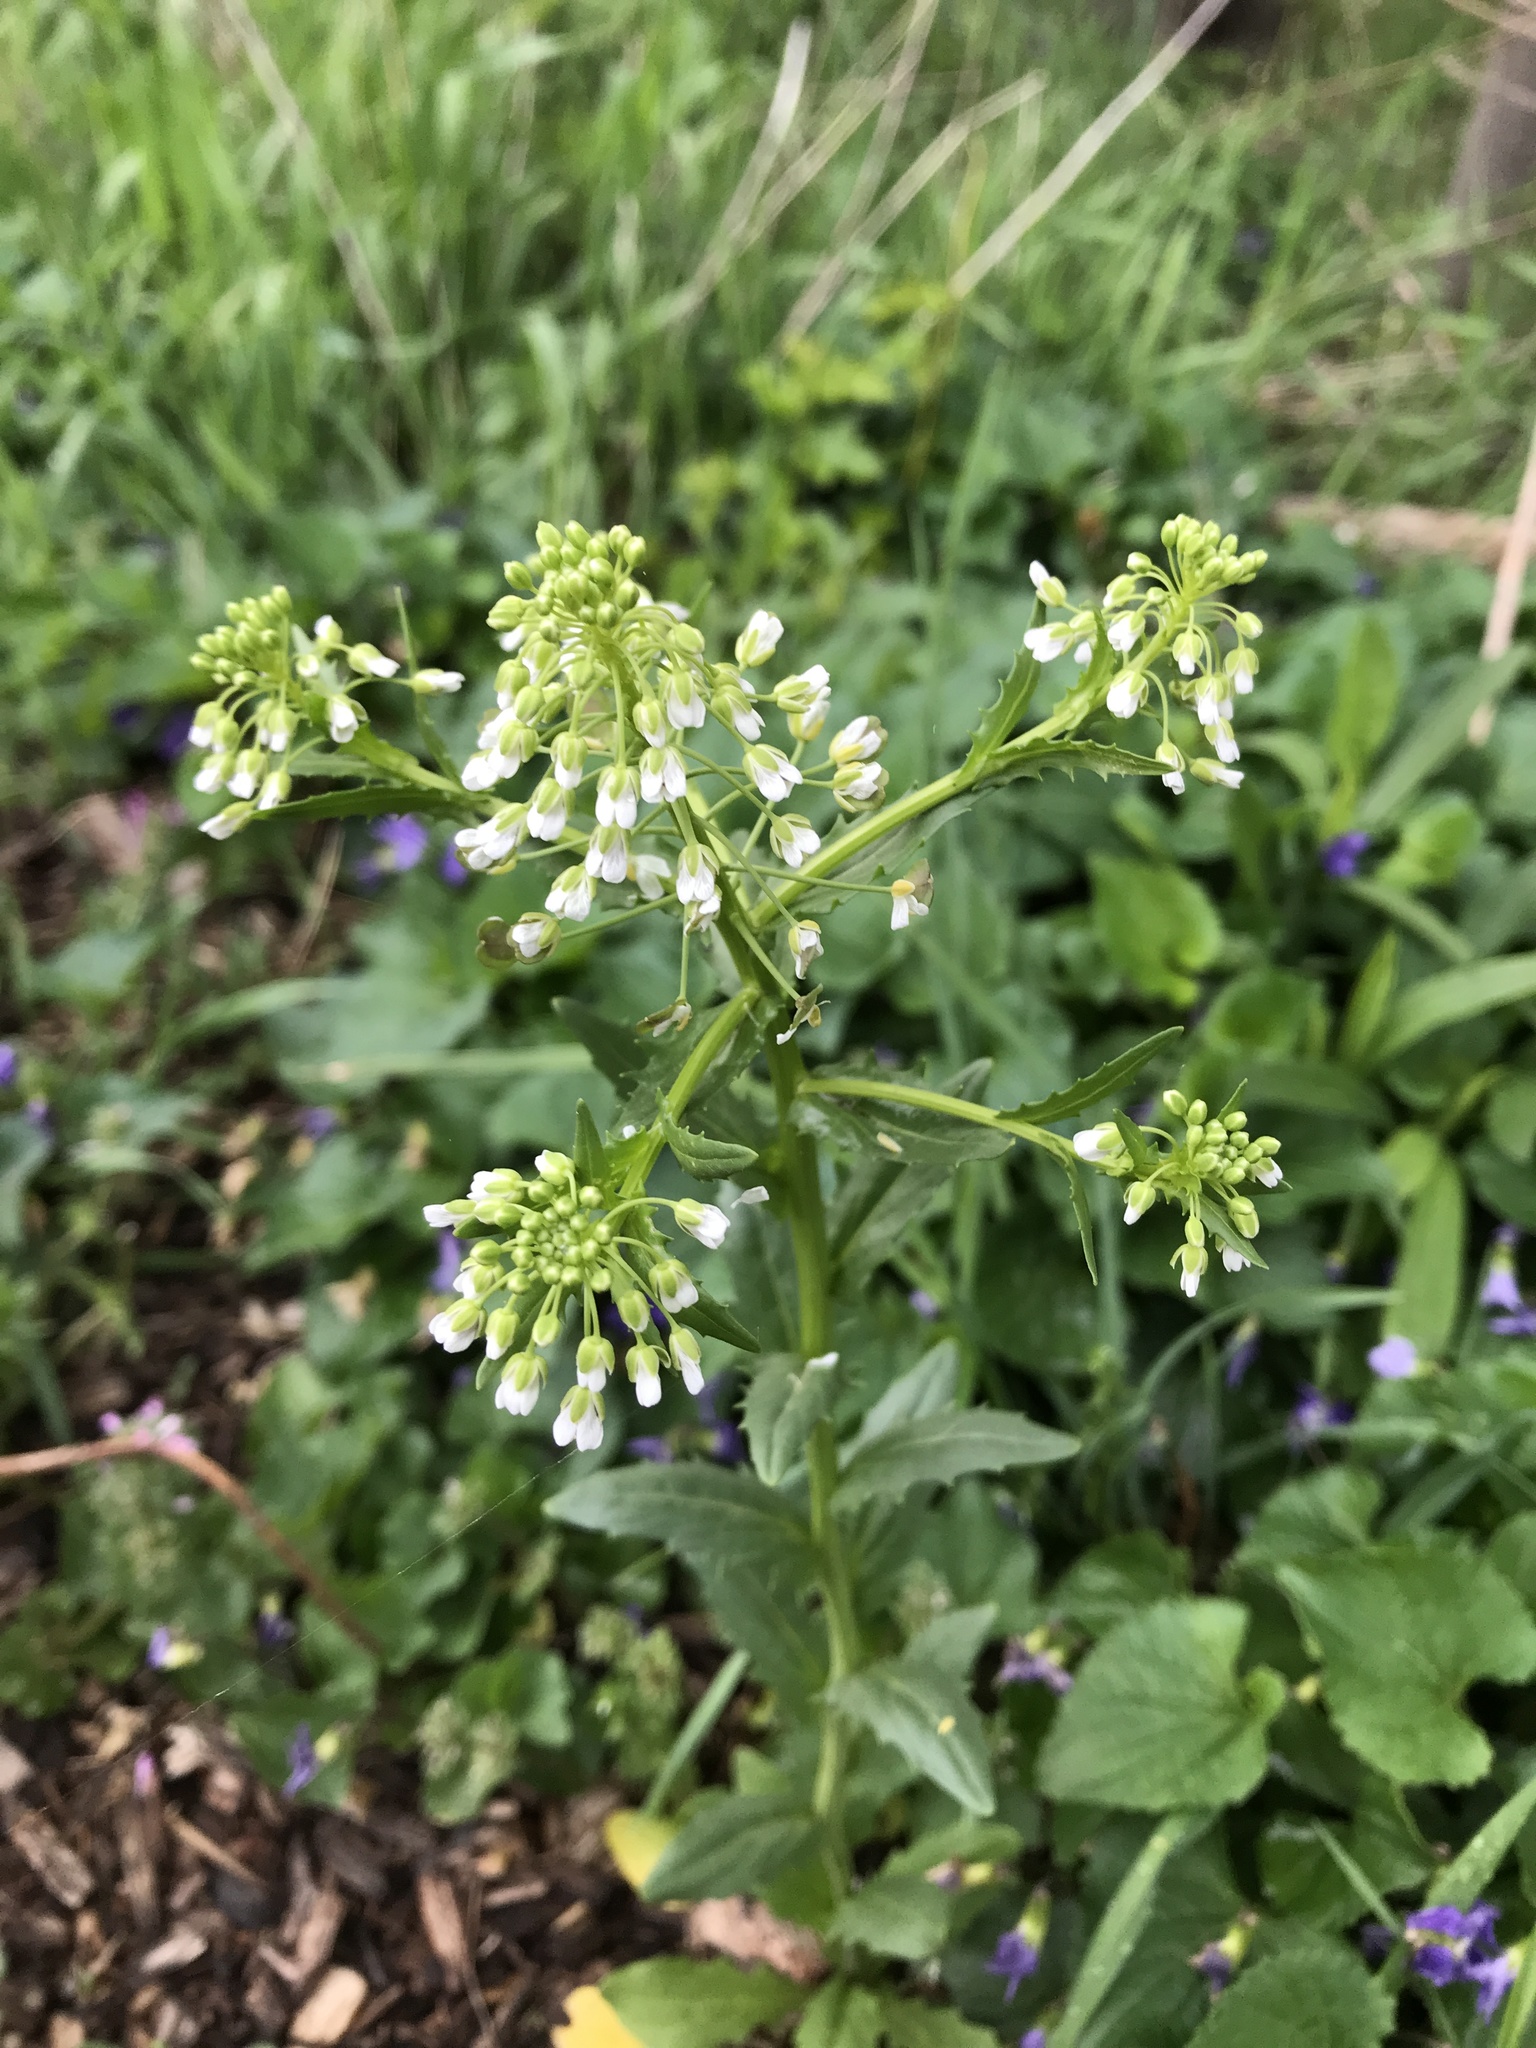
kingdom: Plantae
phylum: Tracheophyta
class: Magnoliopsida
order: Brassicales
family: Brassicaceae
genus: Thlaspi
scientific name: Thlaspi arvense
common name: Field pennycress
